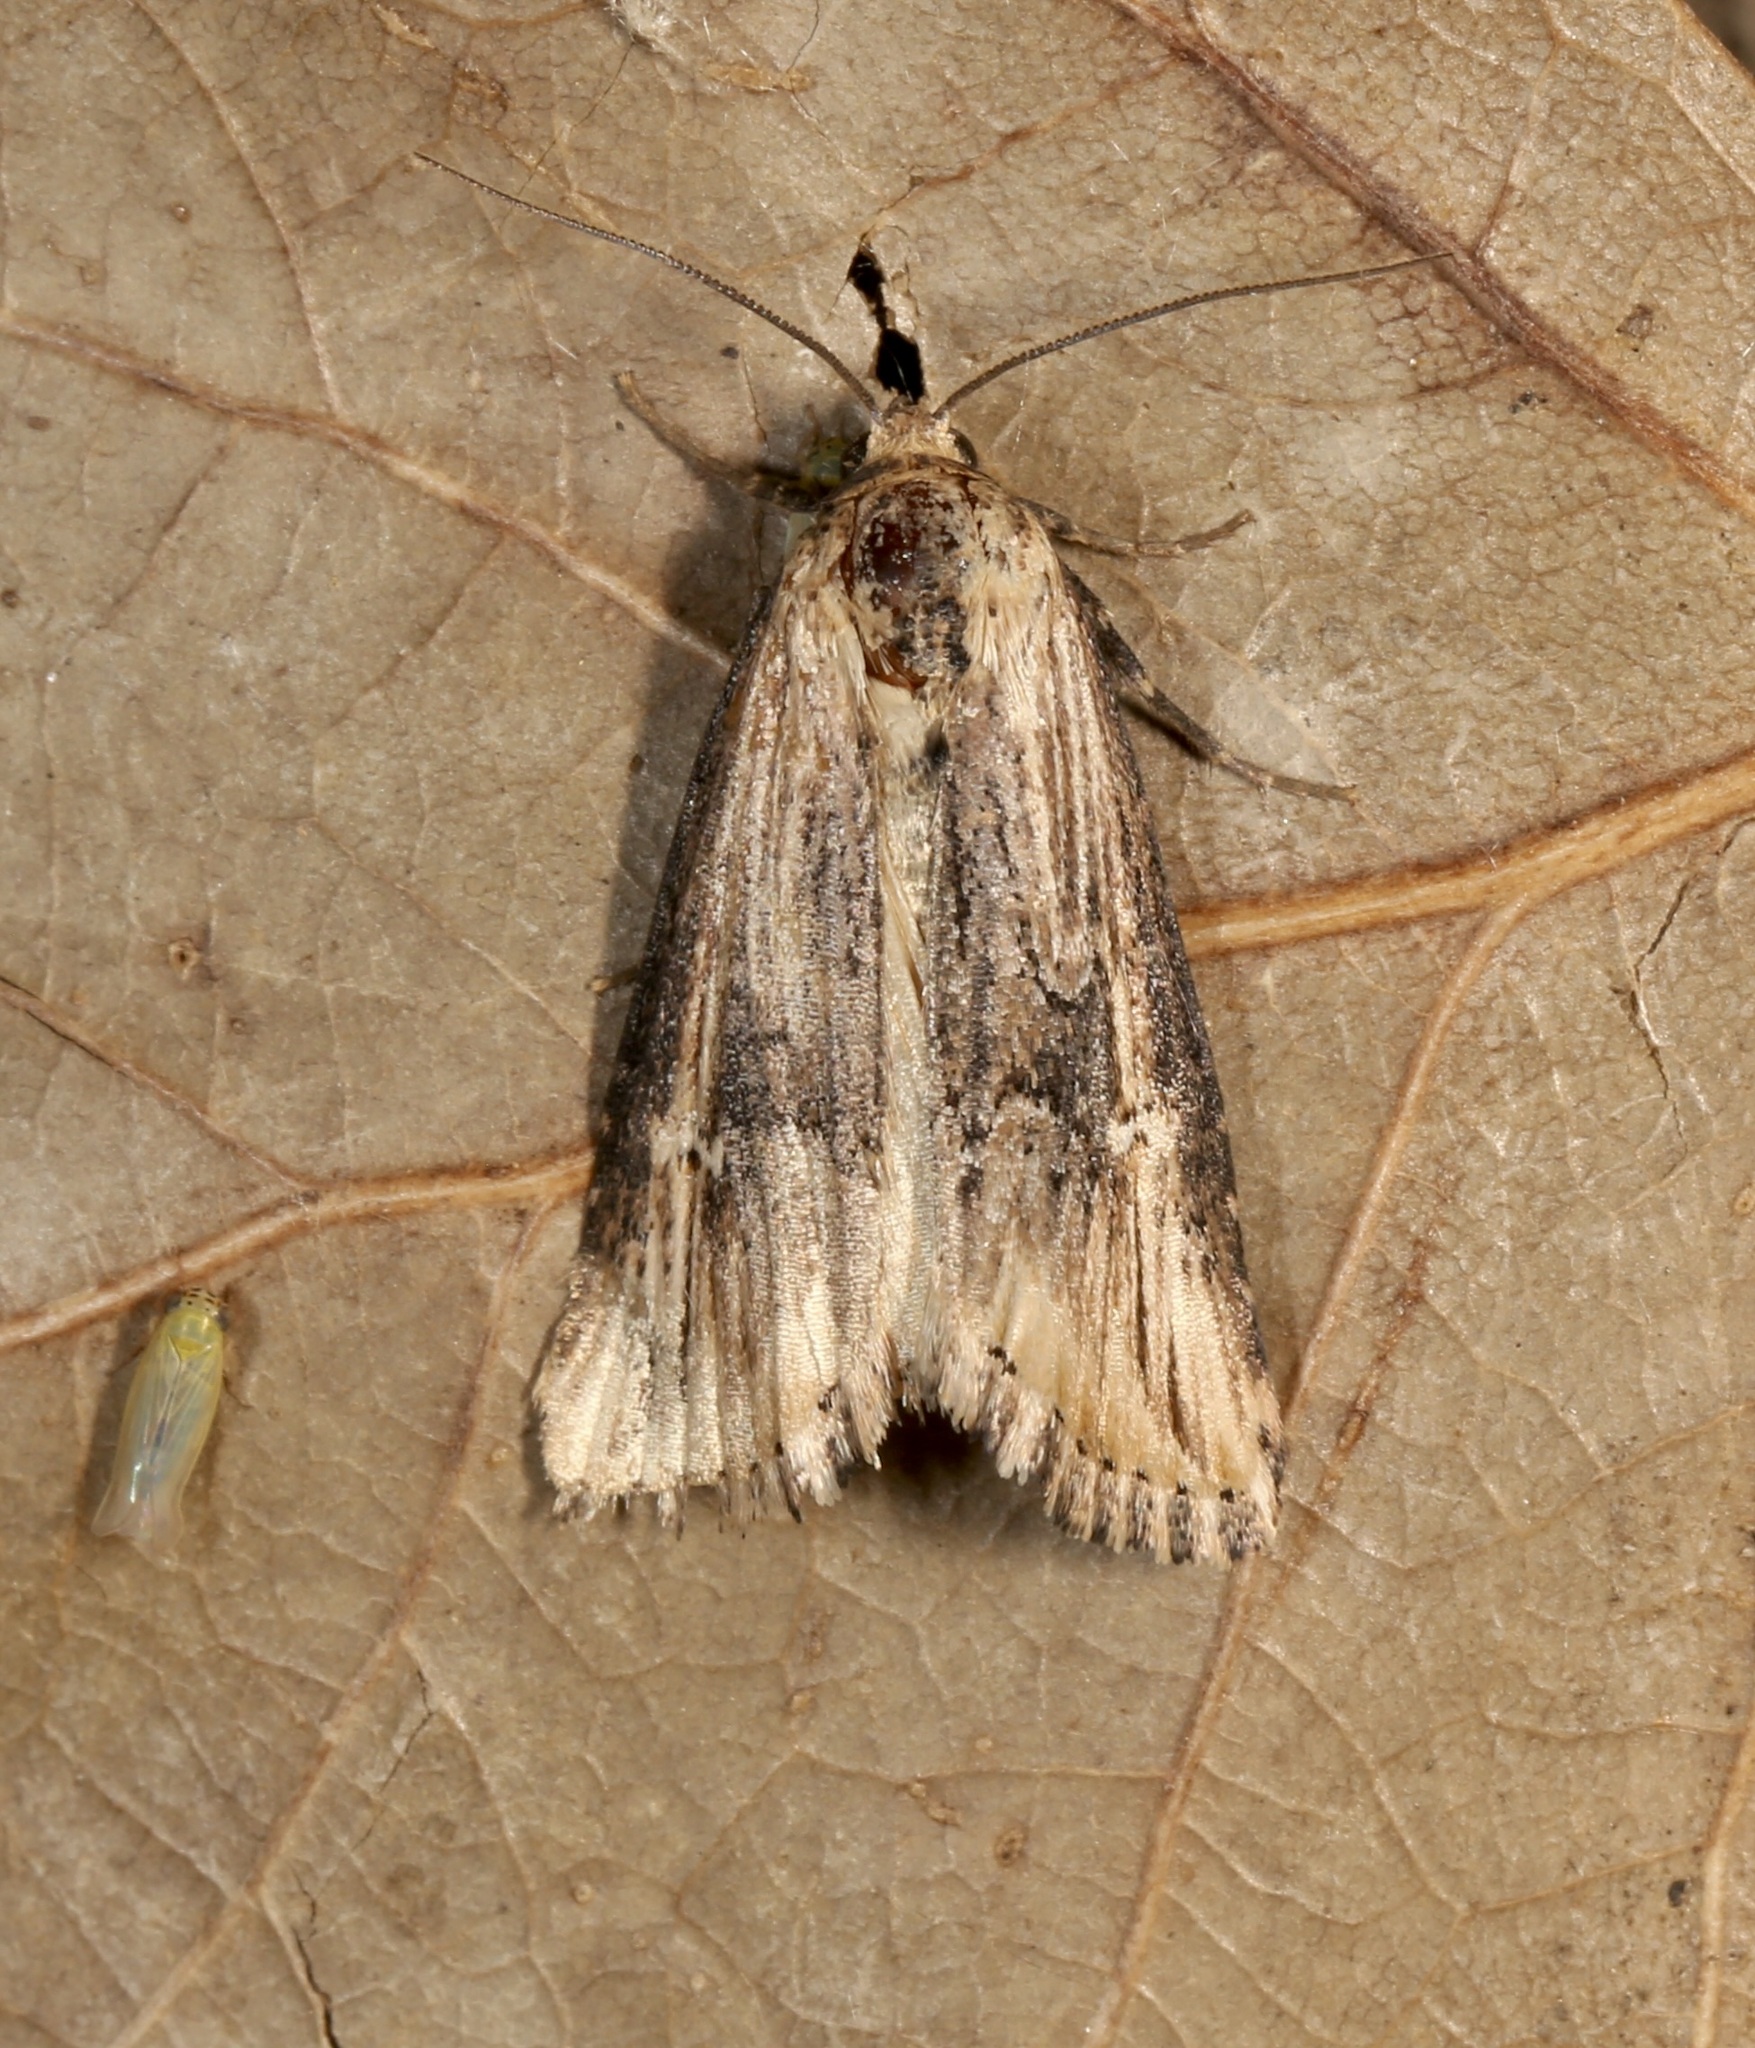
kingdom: Animalia
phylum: Arthropoda
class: Insecta
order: Lepidoptera
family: Noctuidae
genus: Crambodes
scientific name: Crambodes talidiformis
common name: Verbena moth
